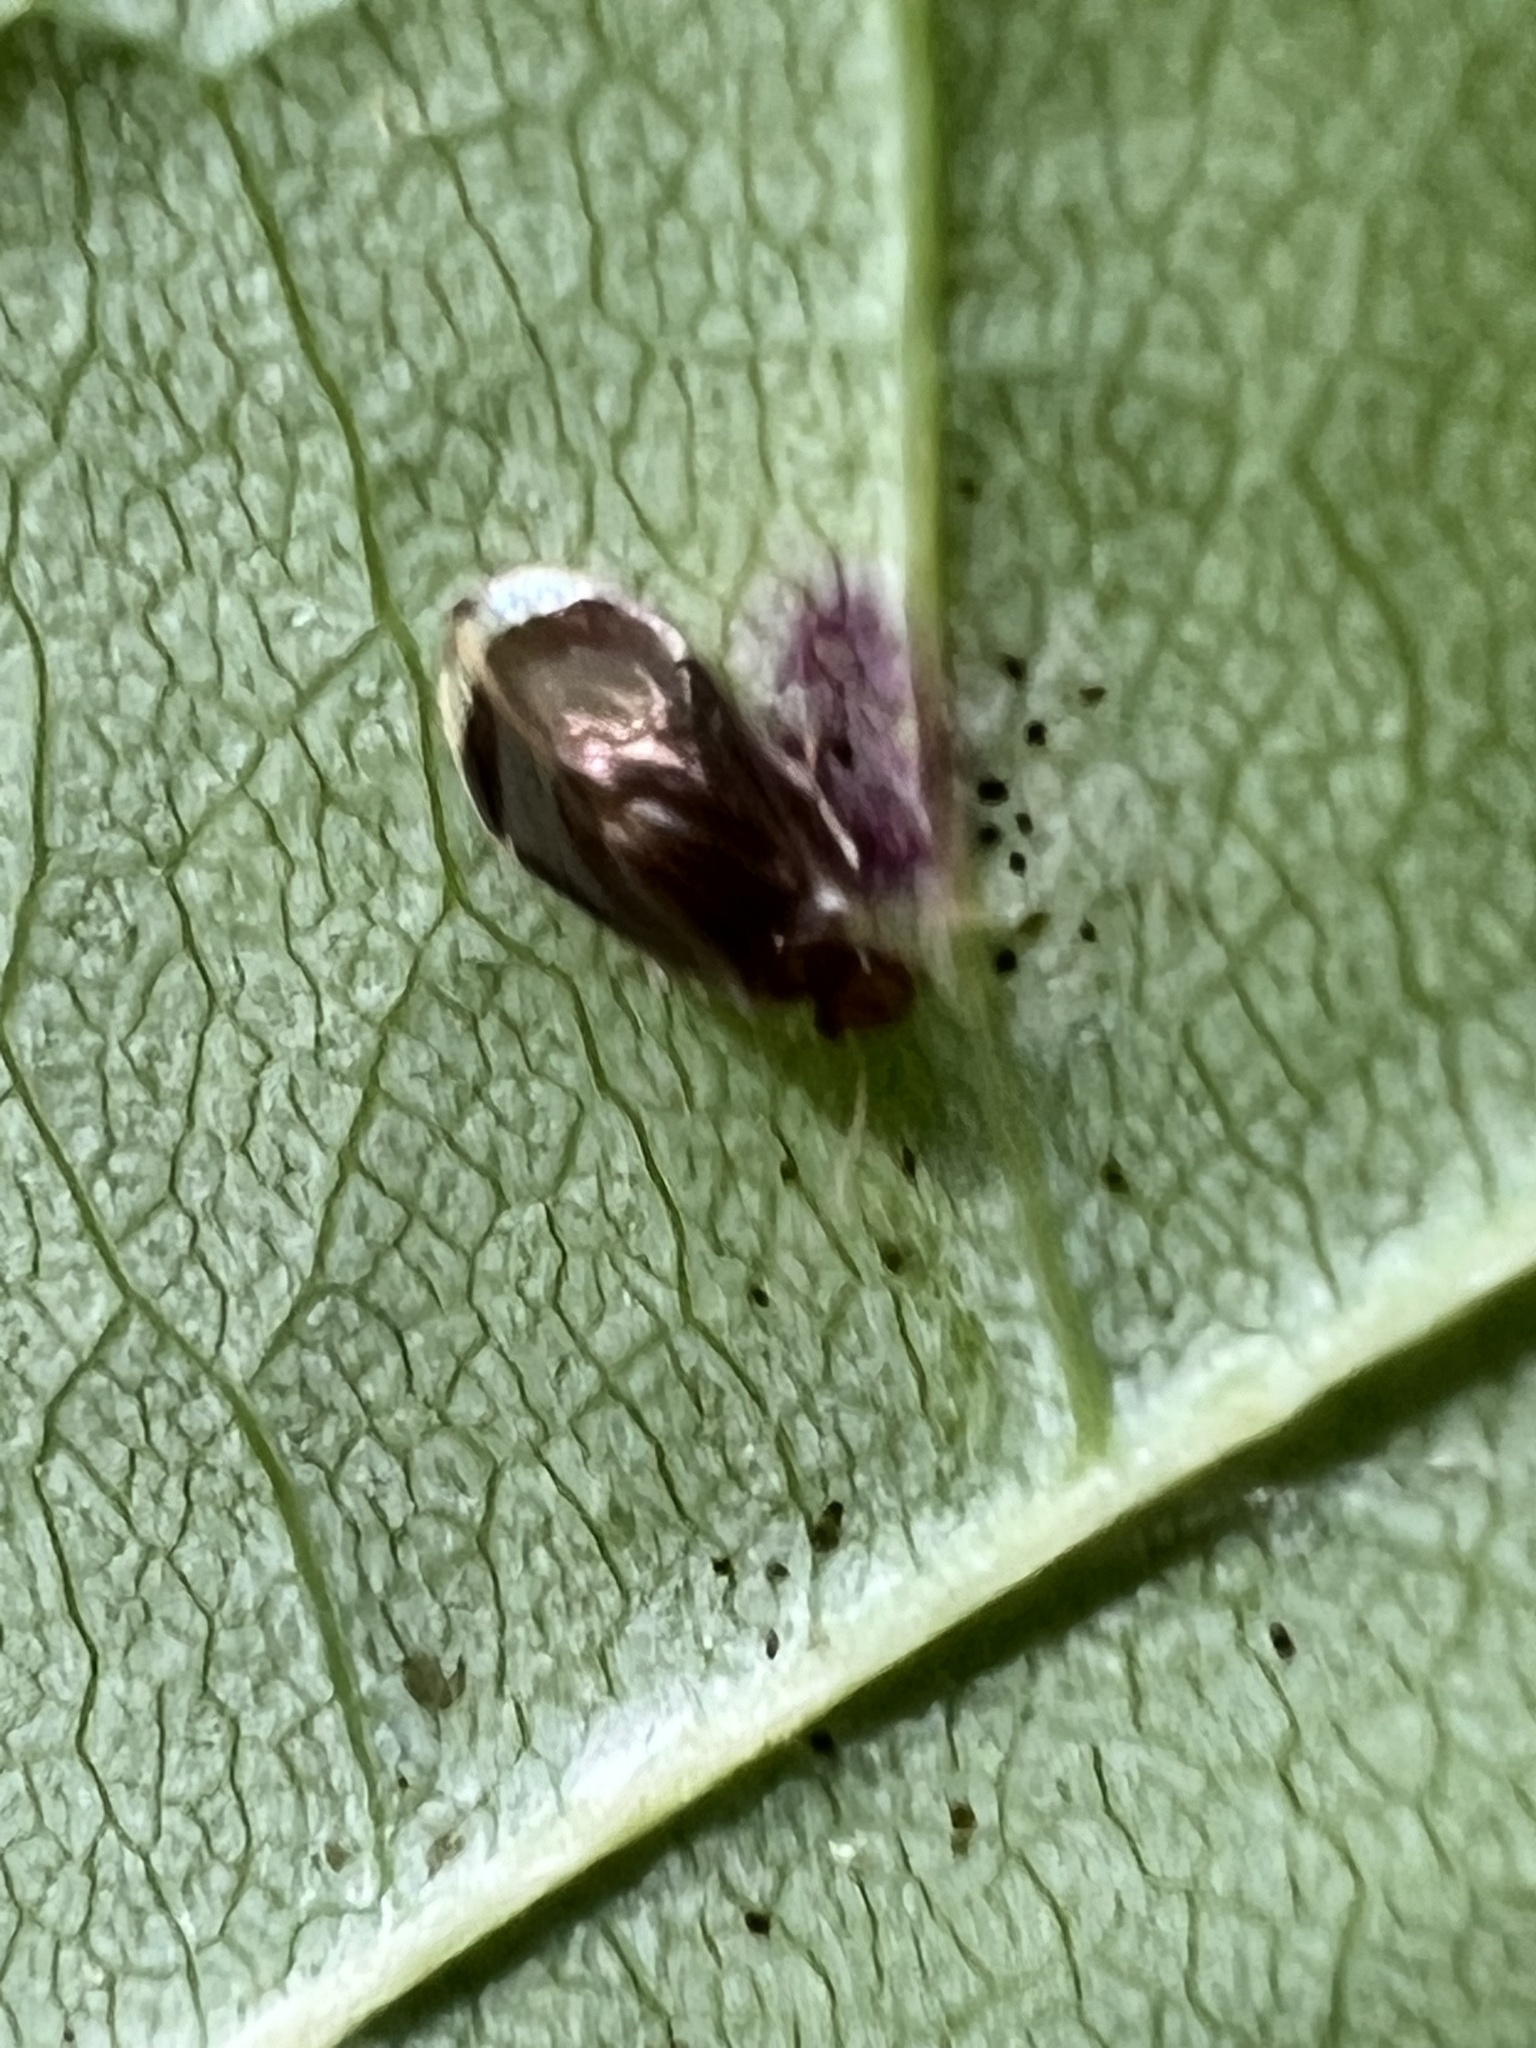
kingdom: Animalia
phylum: Arthropoda
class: Insecta
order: Psocodea
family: Amphipsocidae
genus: Polypsocus
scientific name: Polypsocus corruptus
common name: Corrupt barklouse
